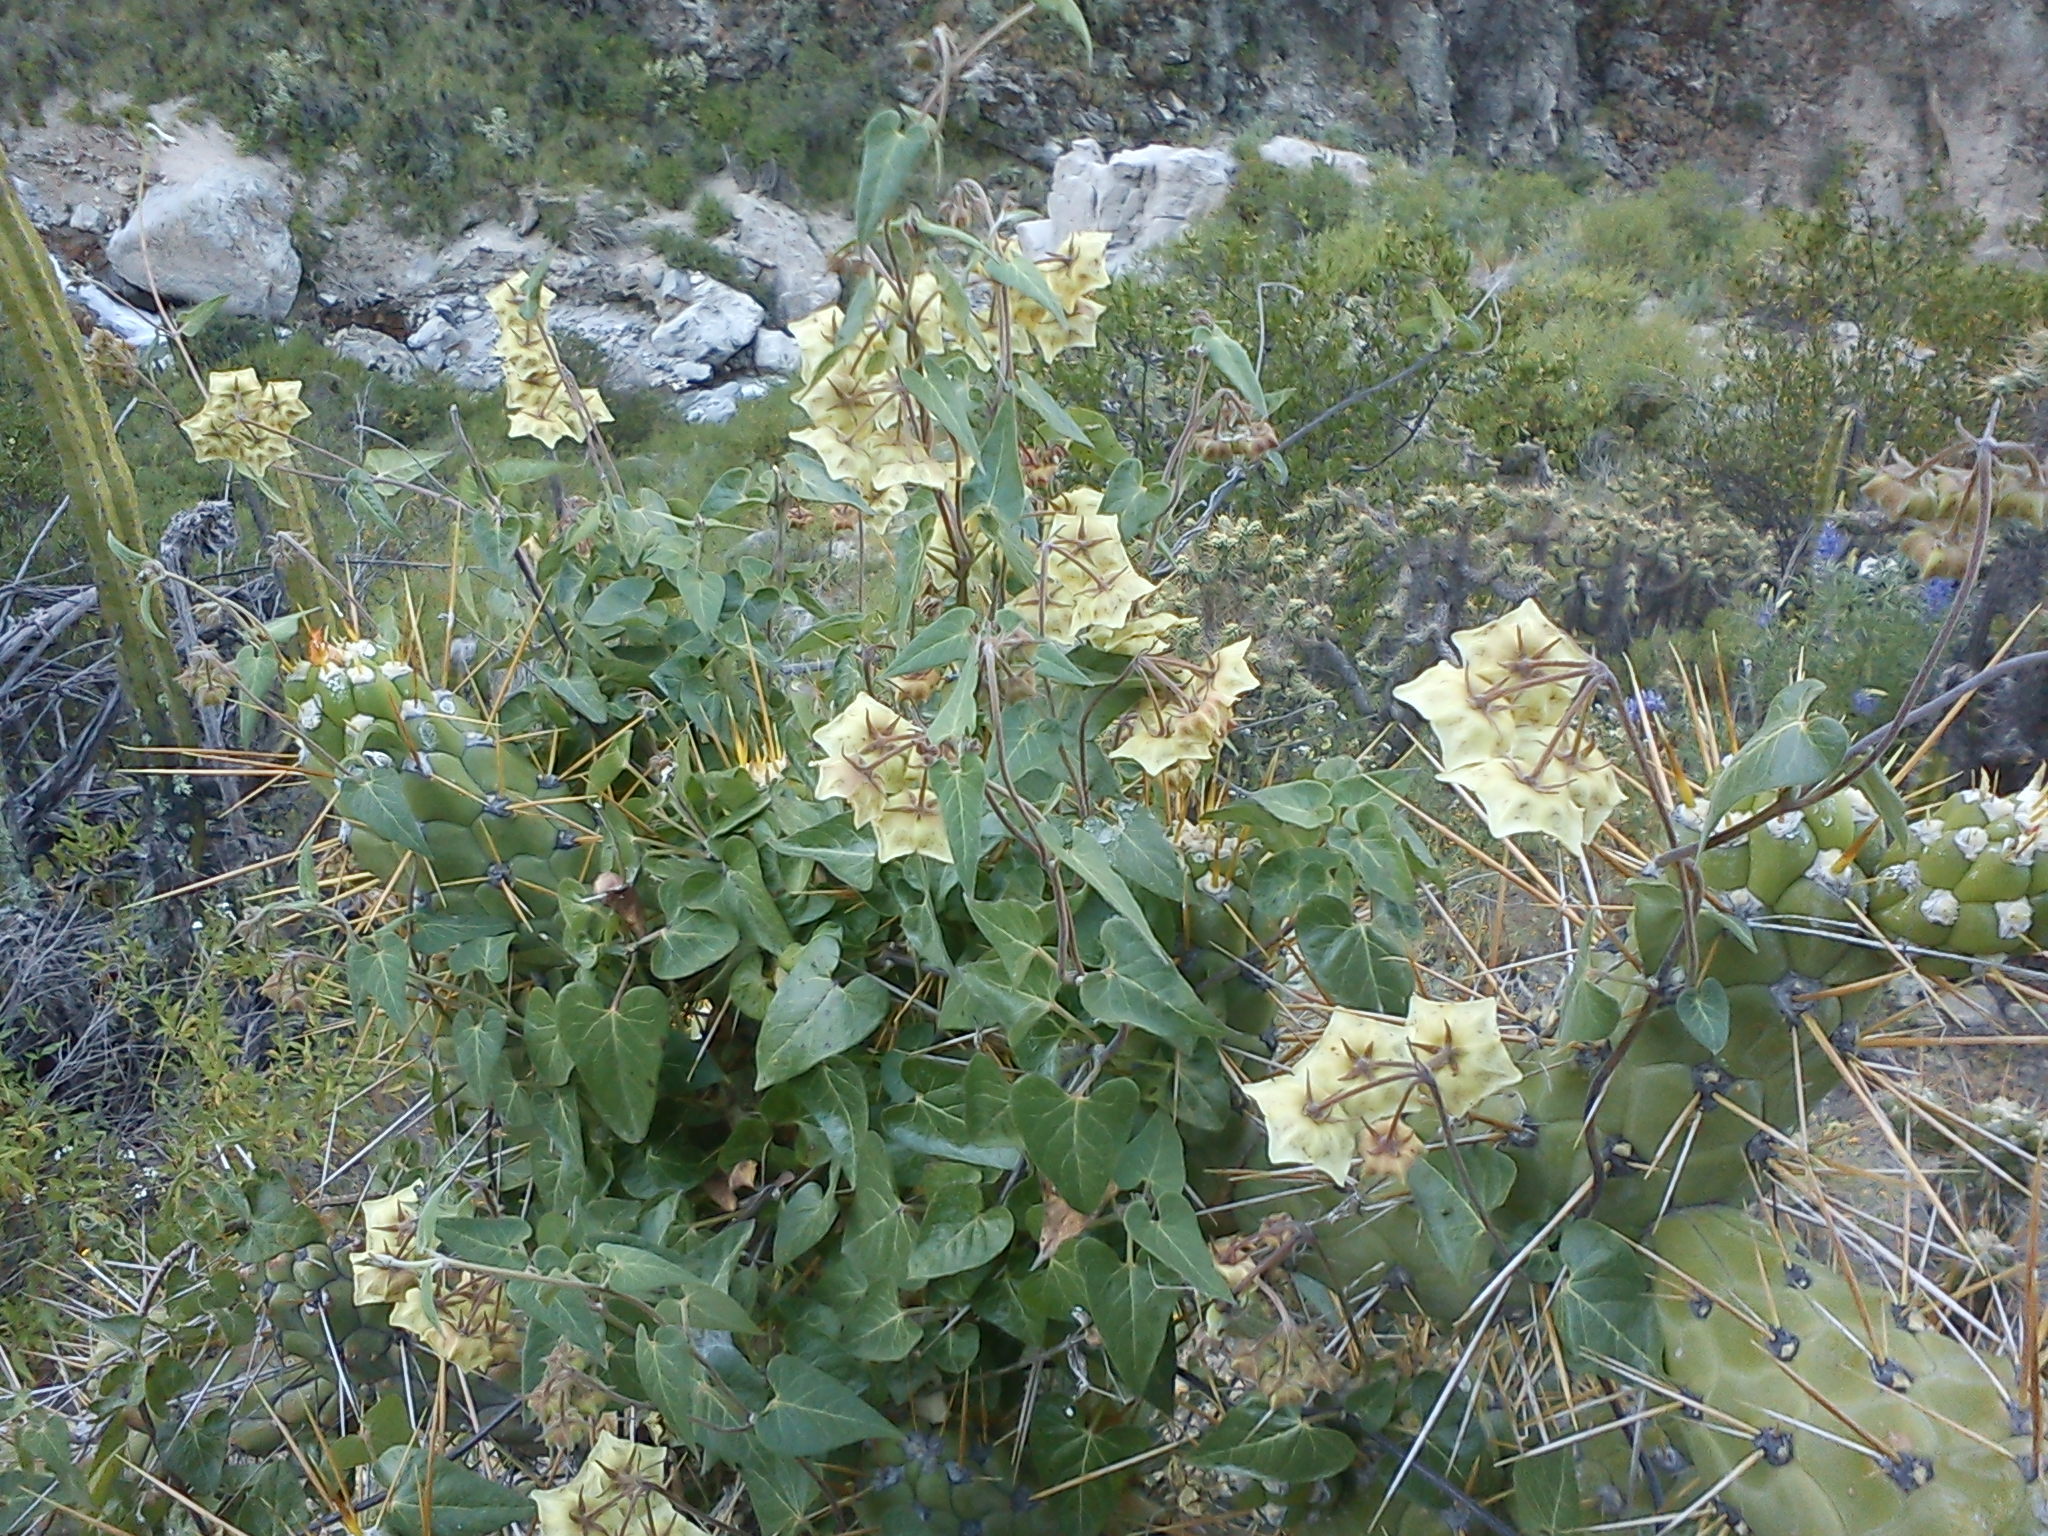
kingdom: Plantae
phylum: Tracheophyta
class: Magnoliopsida
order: Gentianales
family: Apocynaceae
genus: Philibertia
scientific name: Philibertia solanoides
